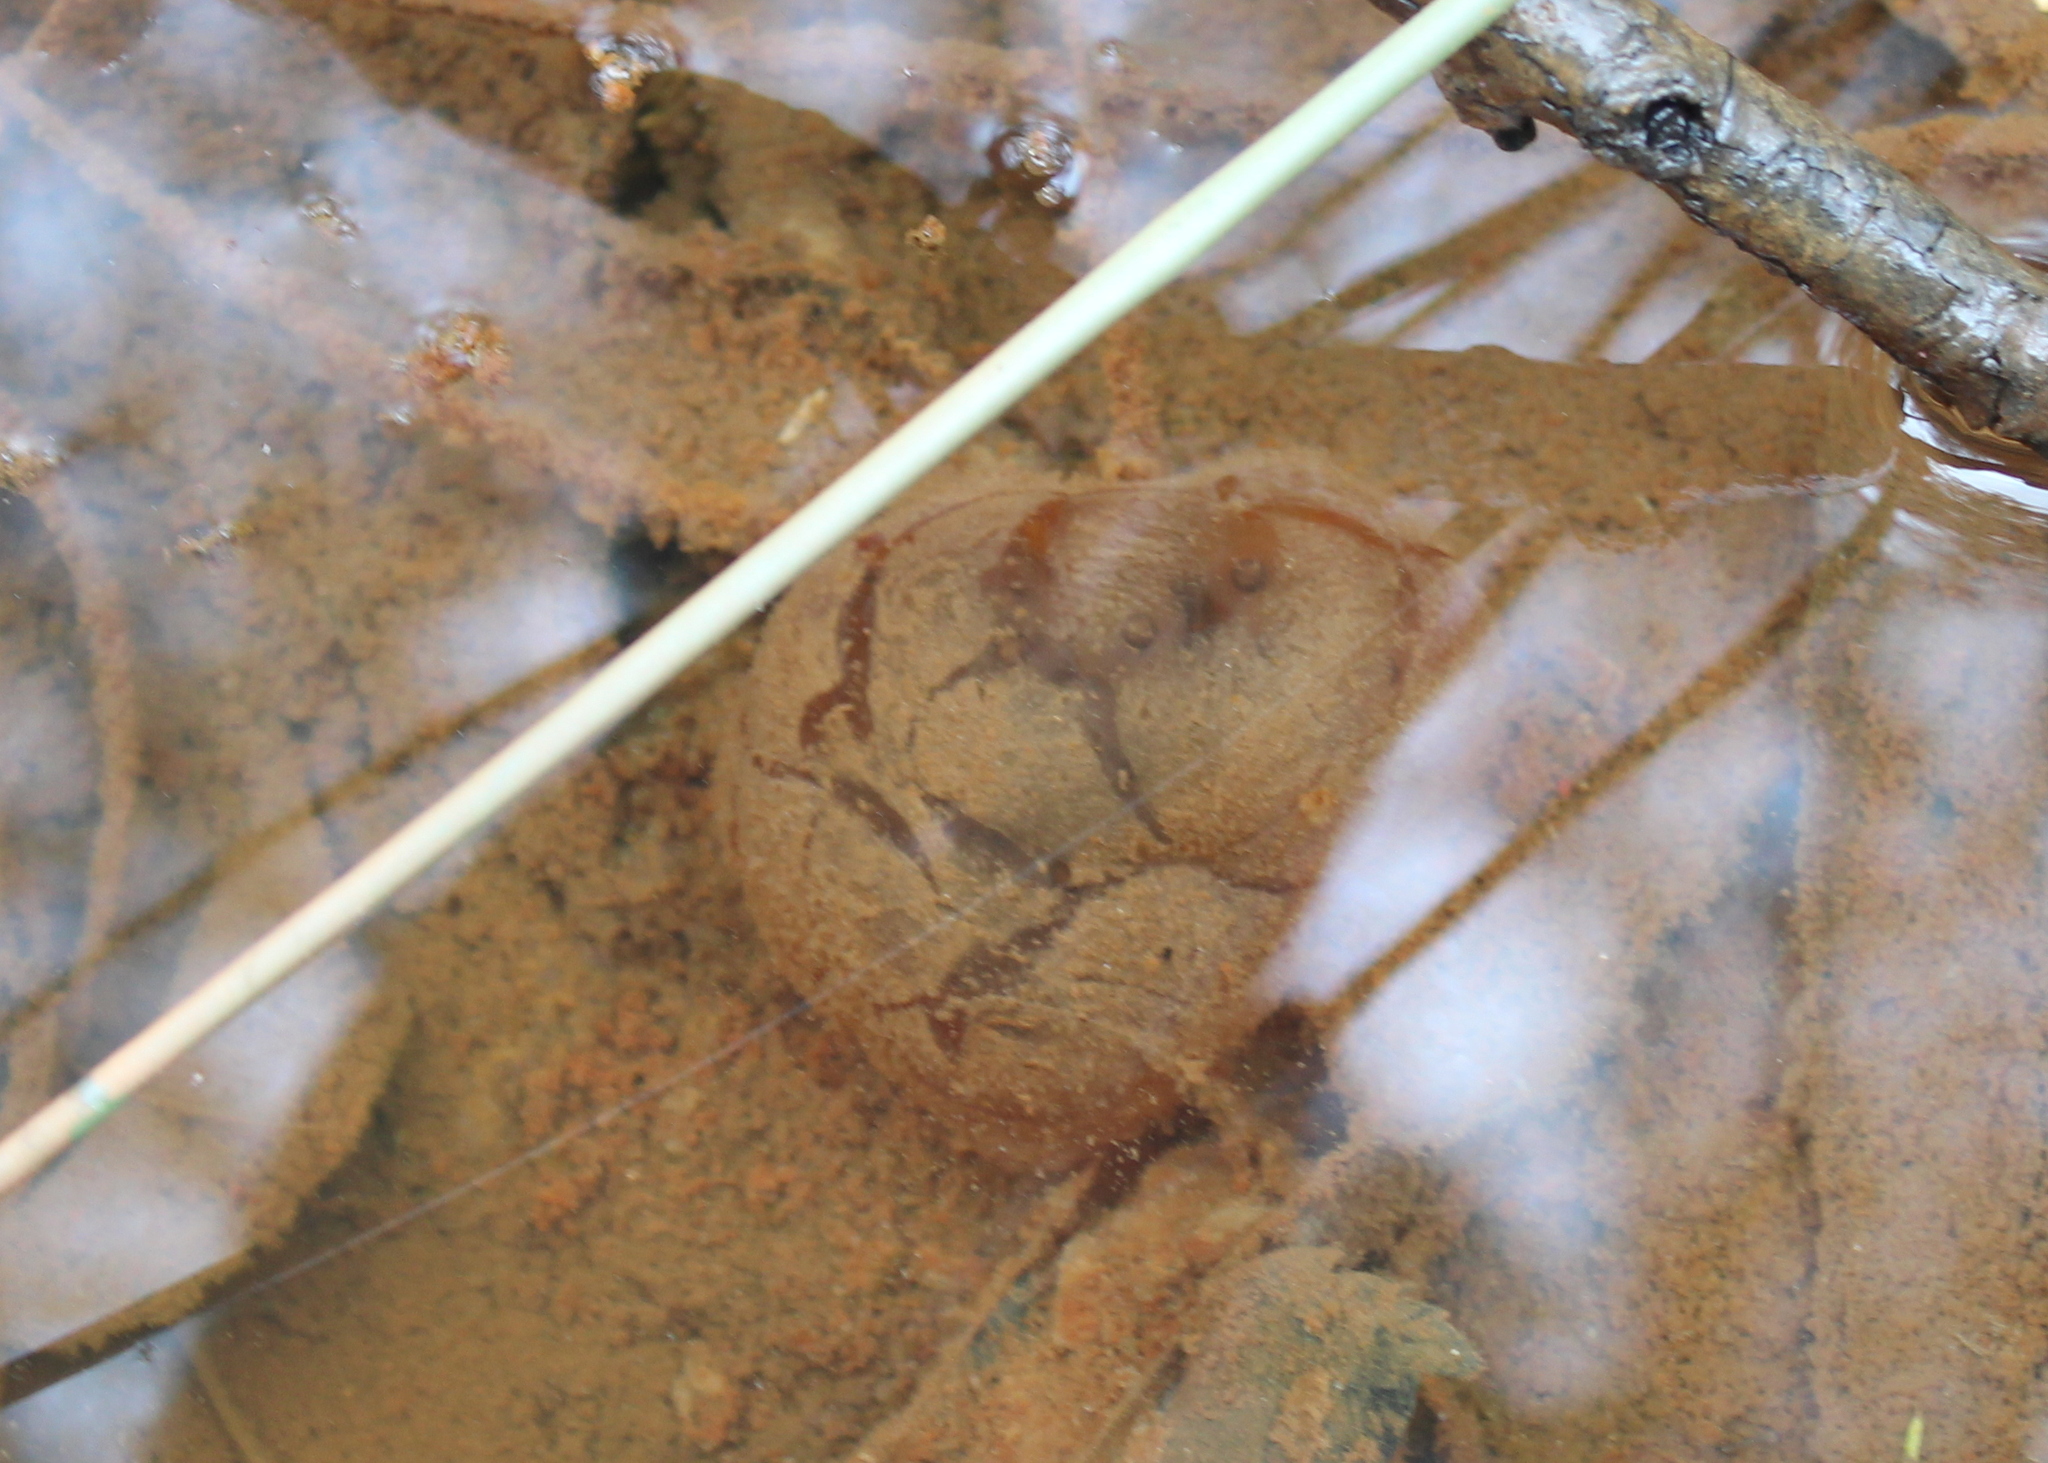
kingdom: Animalia
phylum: Chordata
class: Amphibia
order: Caudata
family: Ambystomatidae
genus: Ambystoma
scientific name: Ambystoma maculatum
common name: Spotted salamander
